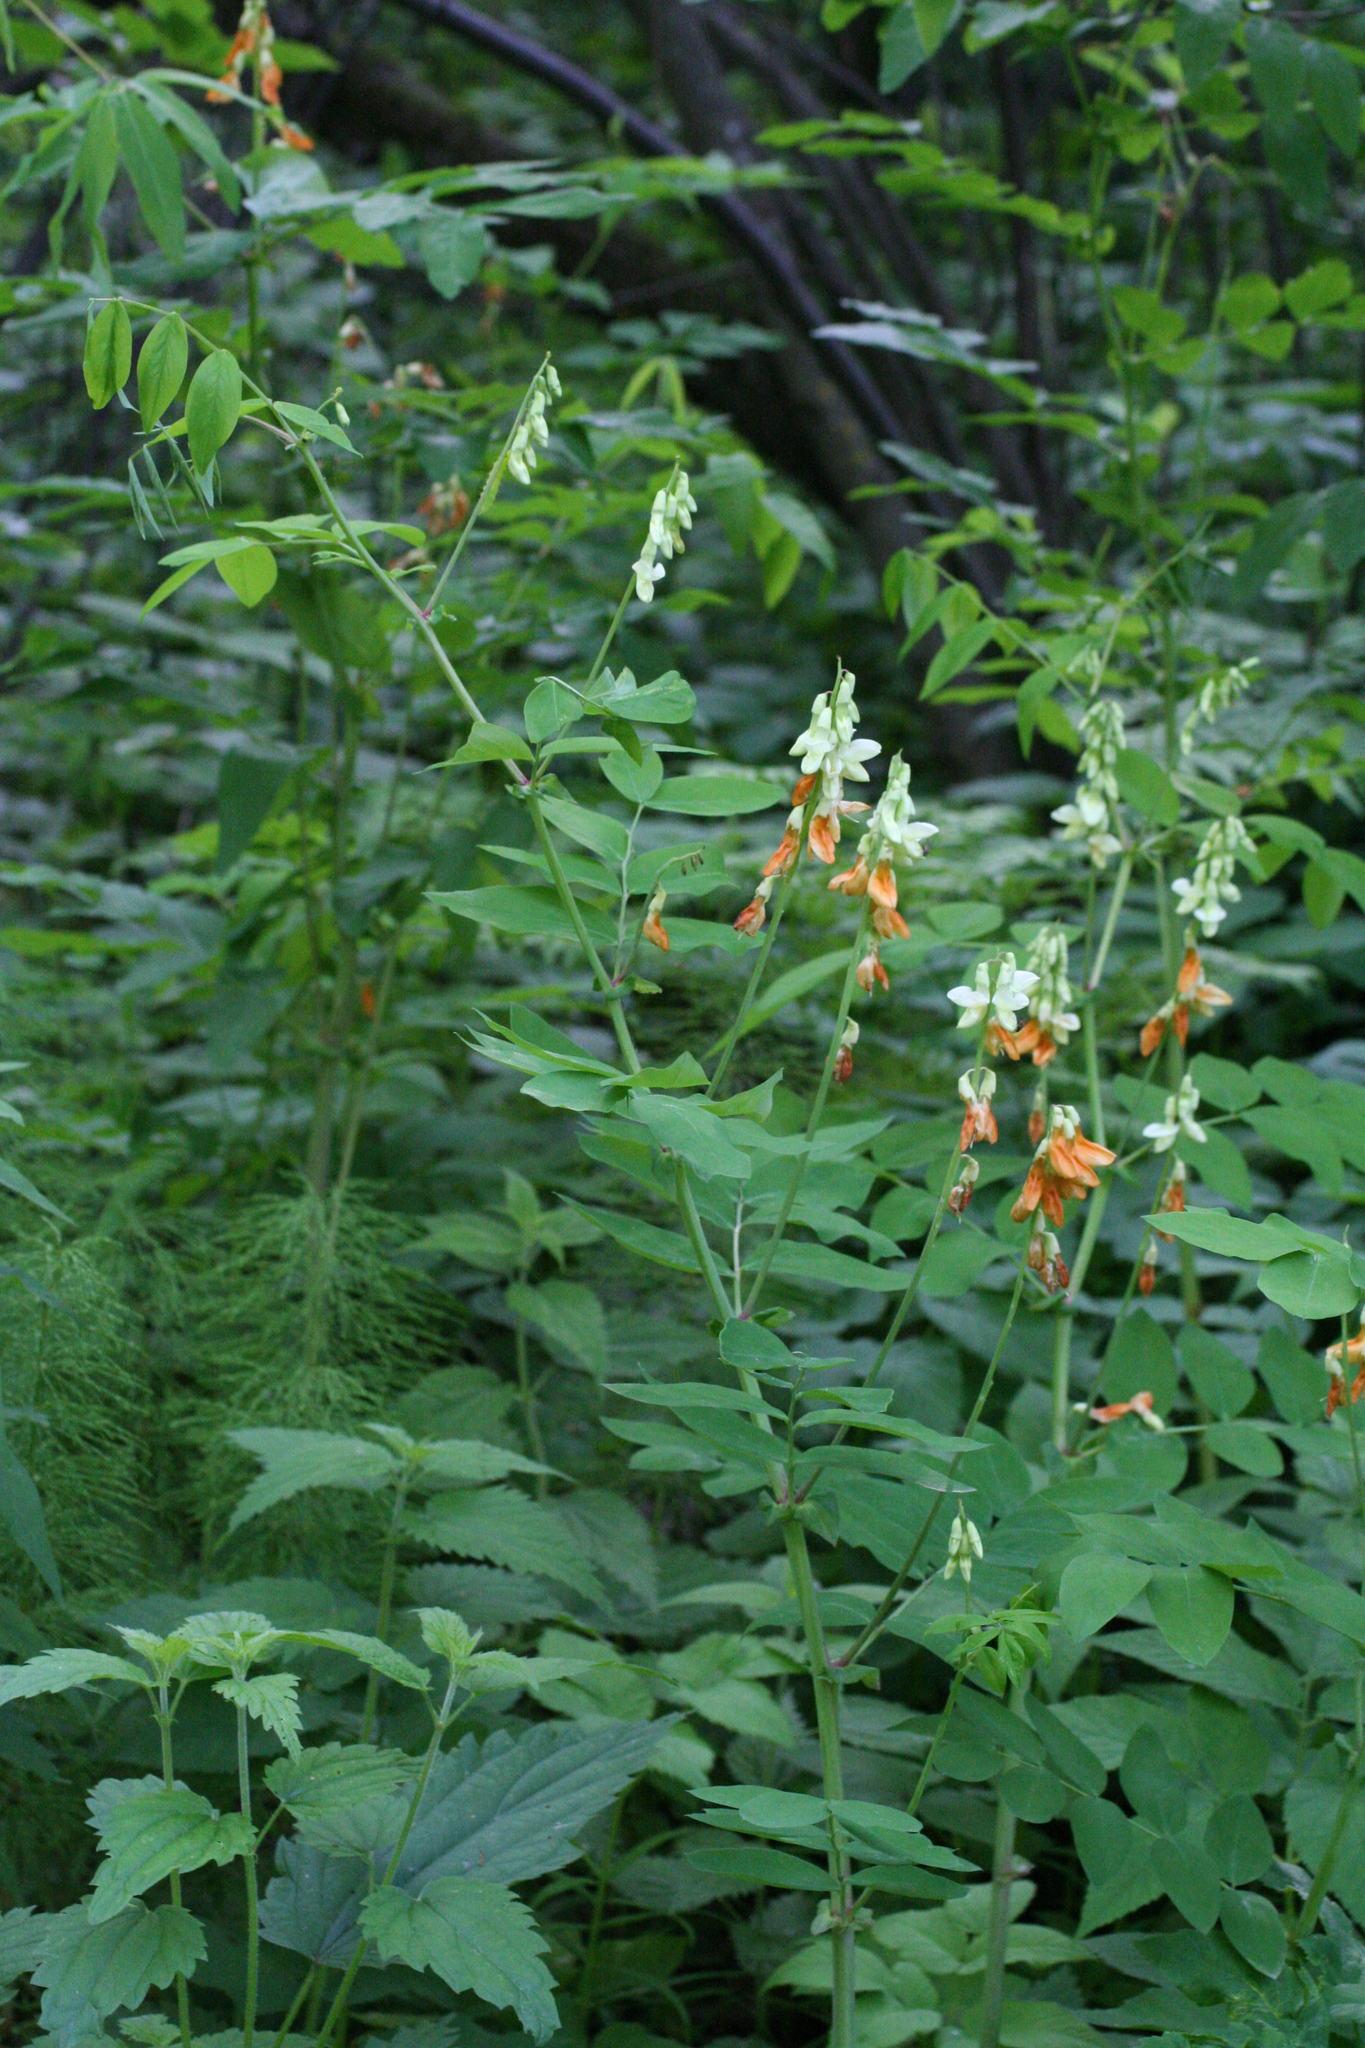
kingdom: Plantae
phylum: Tracheophyta
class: Magnoliopsida
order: Fabales
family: Fabaceae
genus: Lathyrus
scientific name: Lathyrus gmelinii
